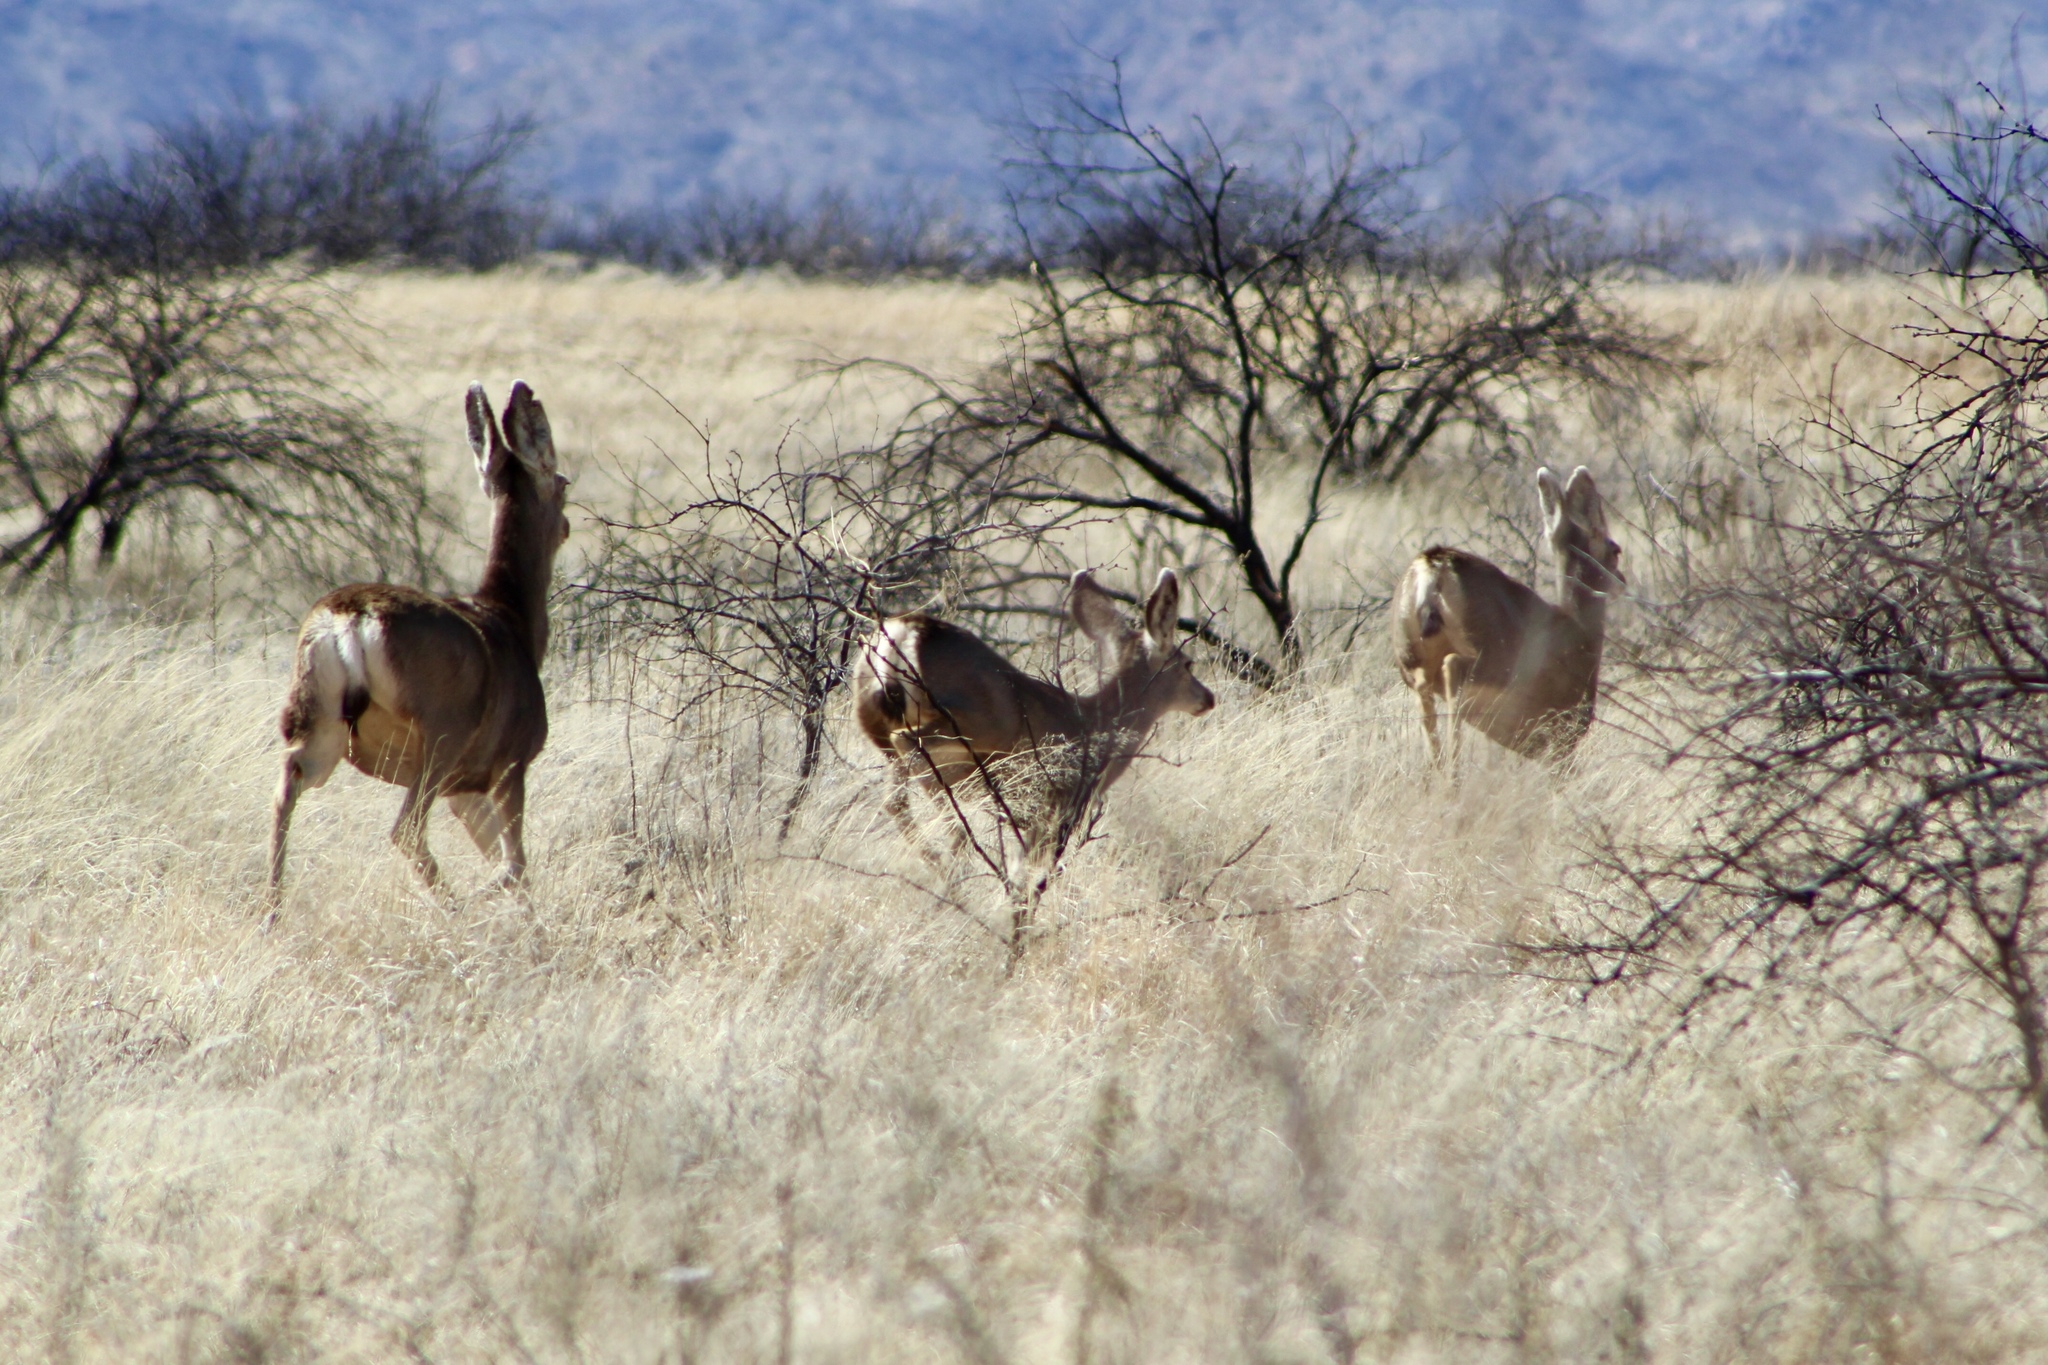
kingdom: Animalia
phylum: Chordata
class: Mammalia
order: Artiodactyla
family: Cervidae
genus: Odocoileus
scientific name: Odocoileus hemionus
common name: Mule deer
